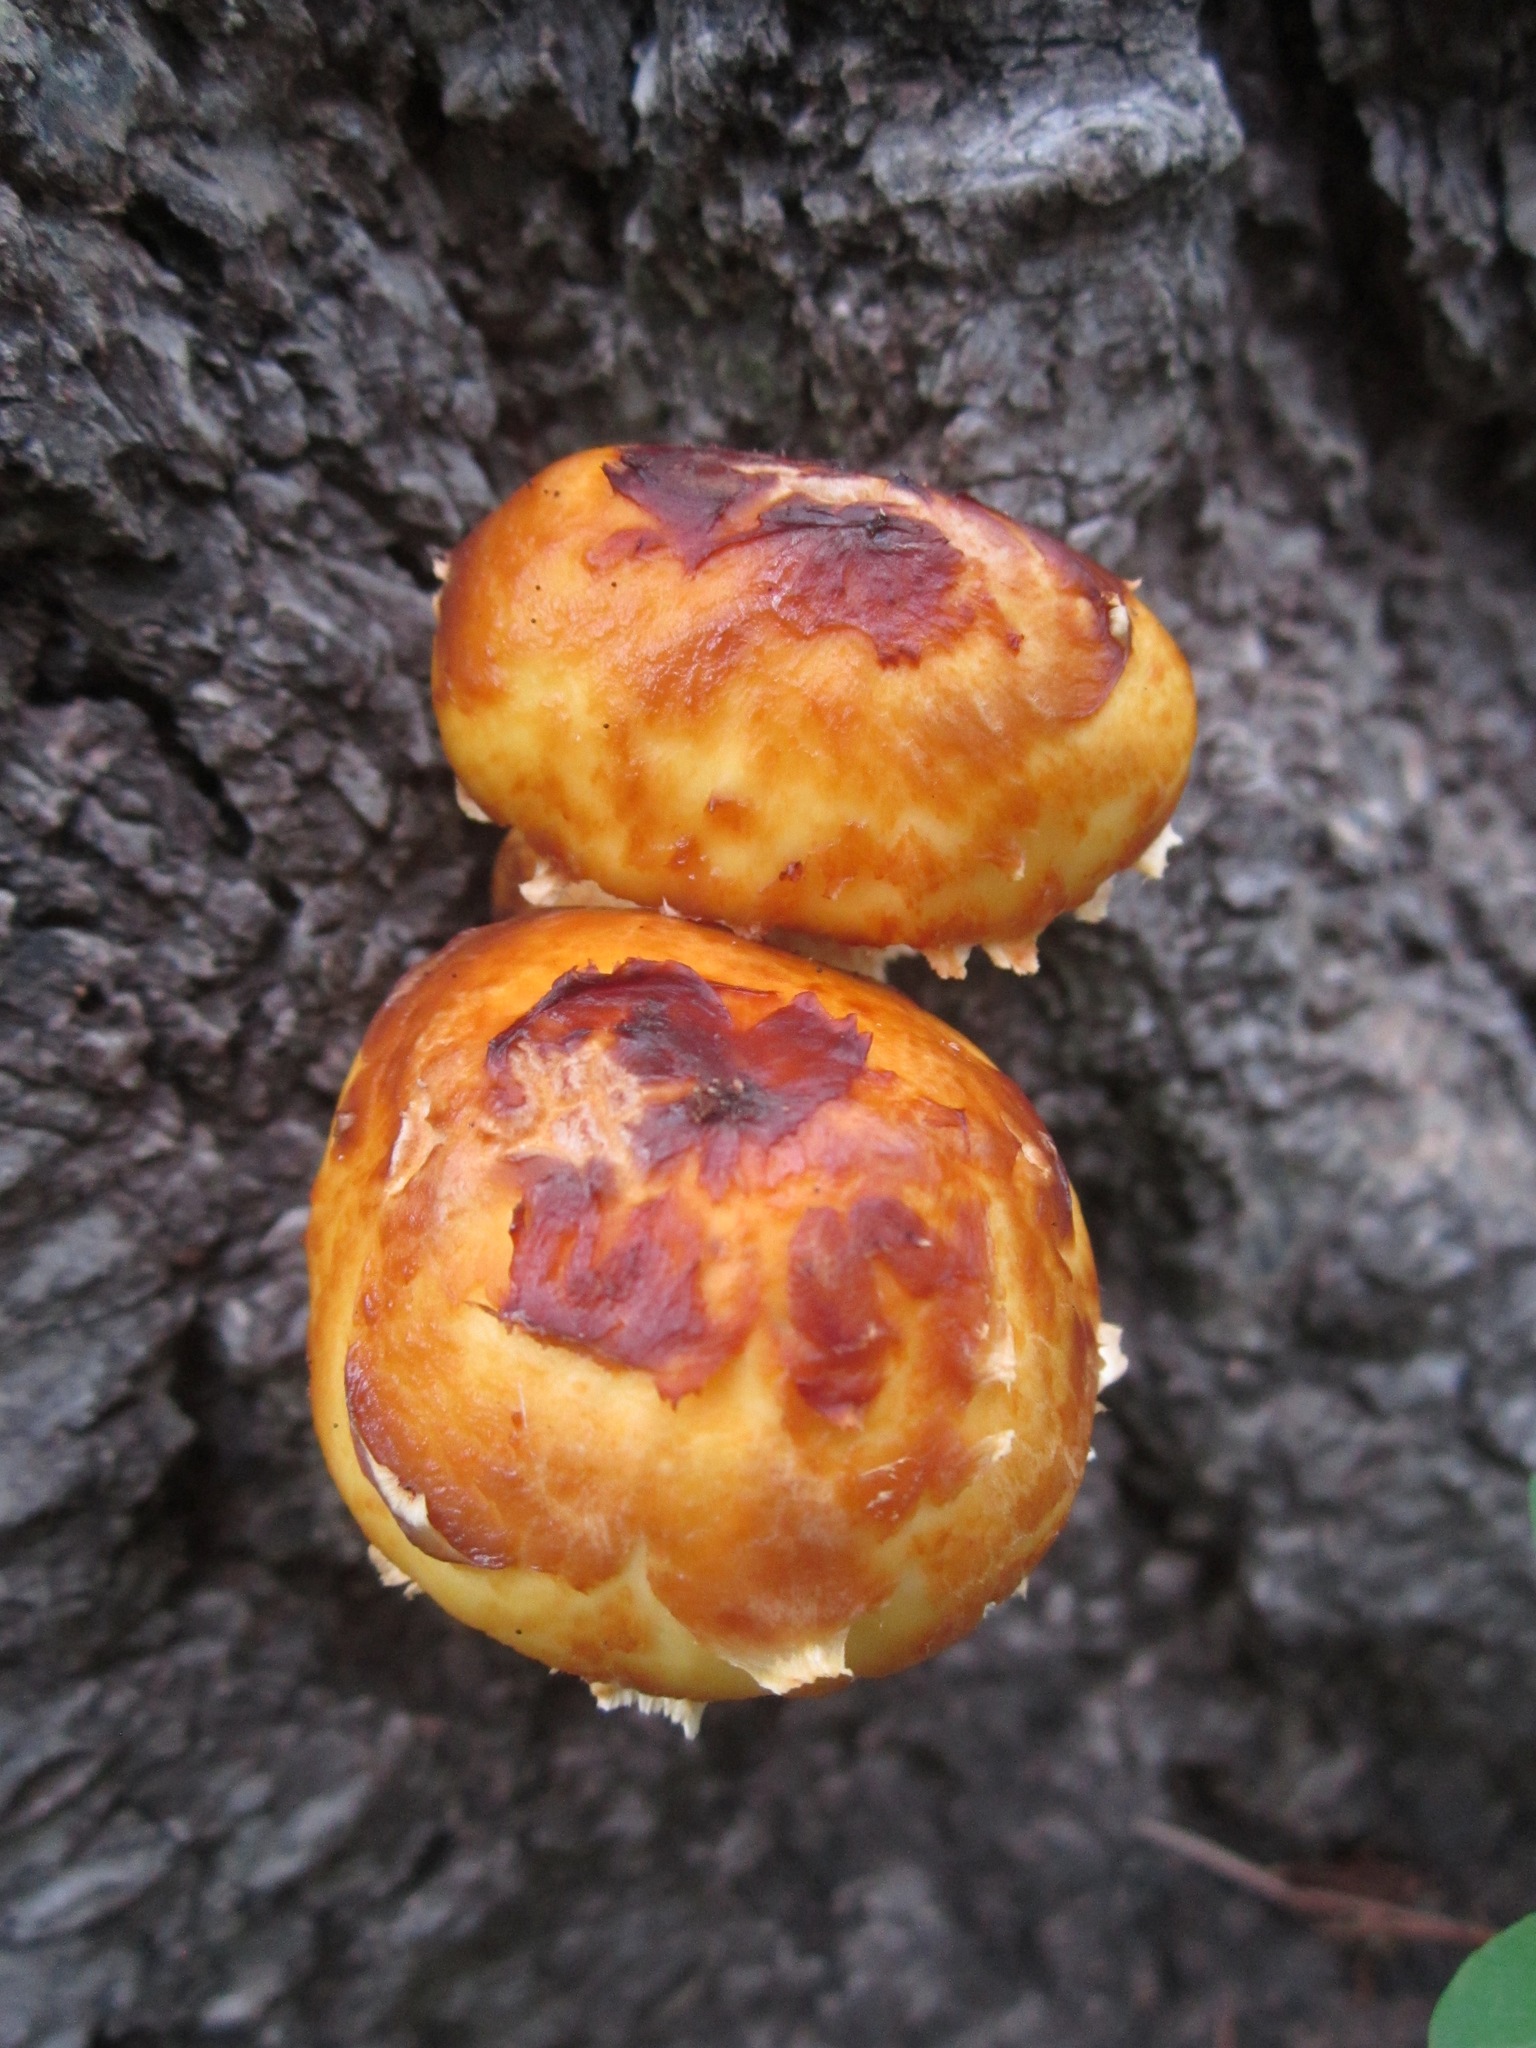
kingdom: Fungi
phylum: Basidiomycota
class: Agaricomycetes
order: Agaricales
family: Strophariaceae
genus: Pholiota
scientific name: Pholiota adiposa
